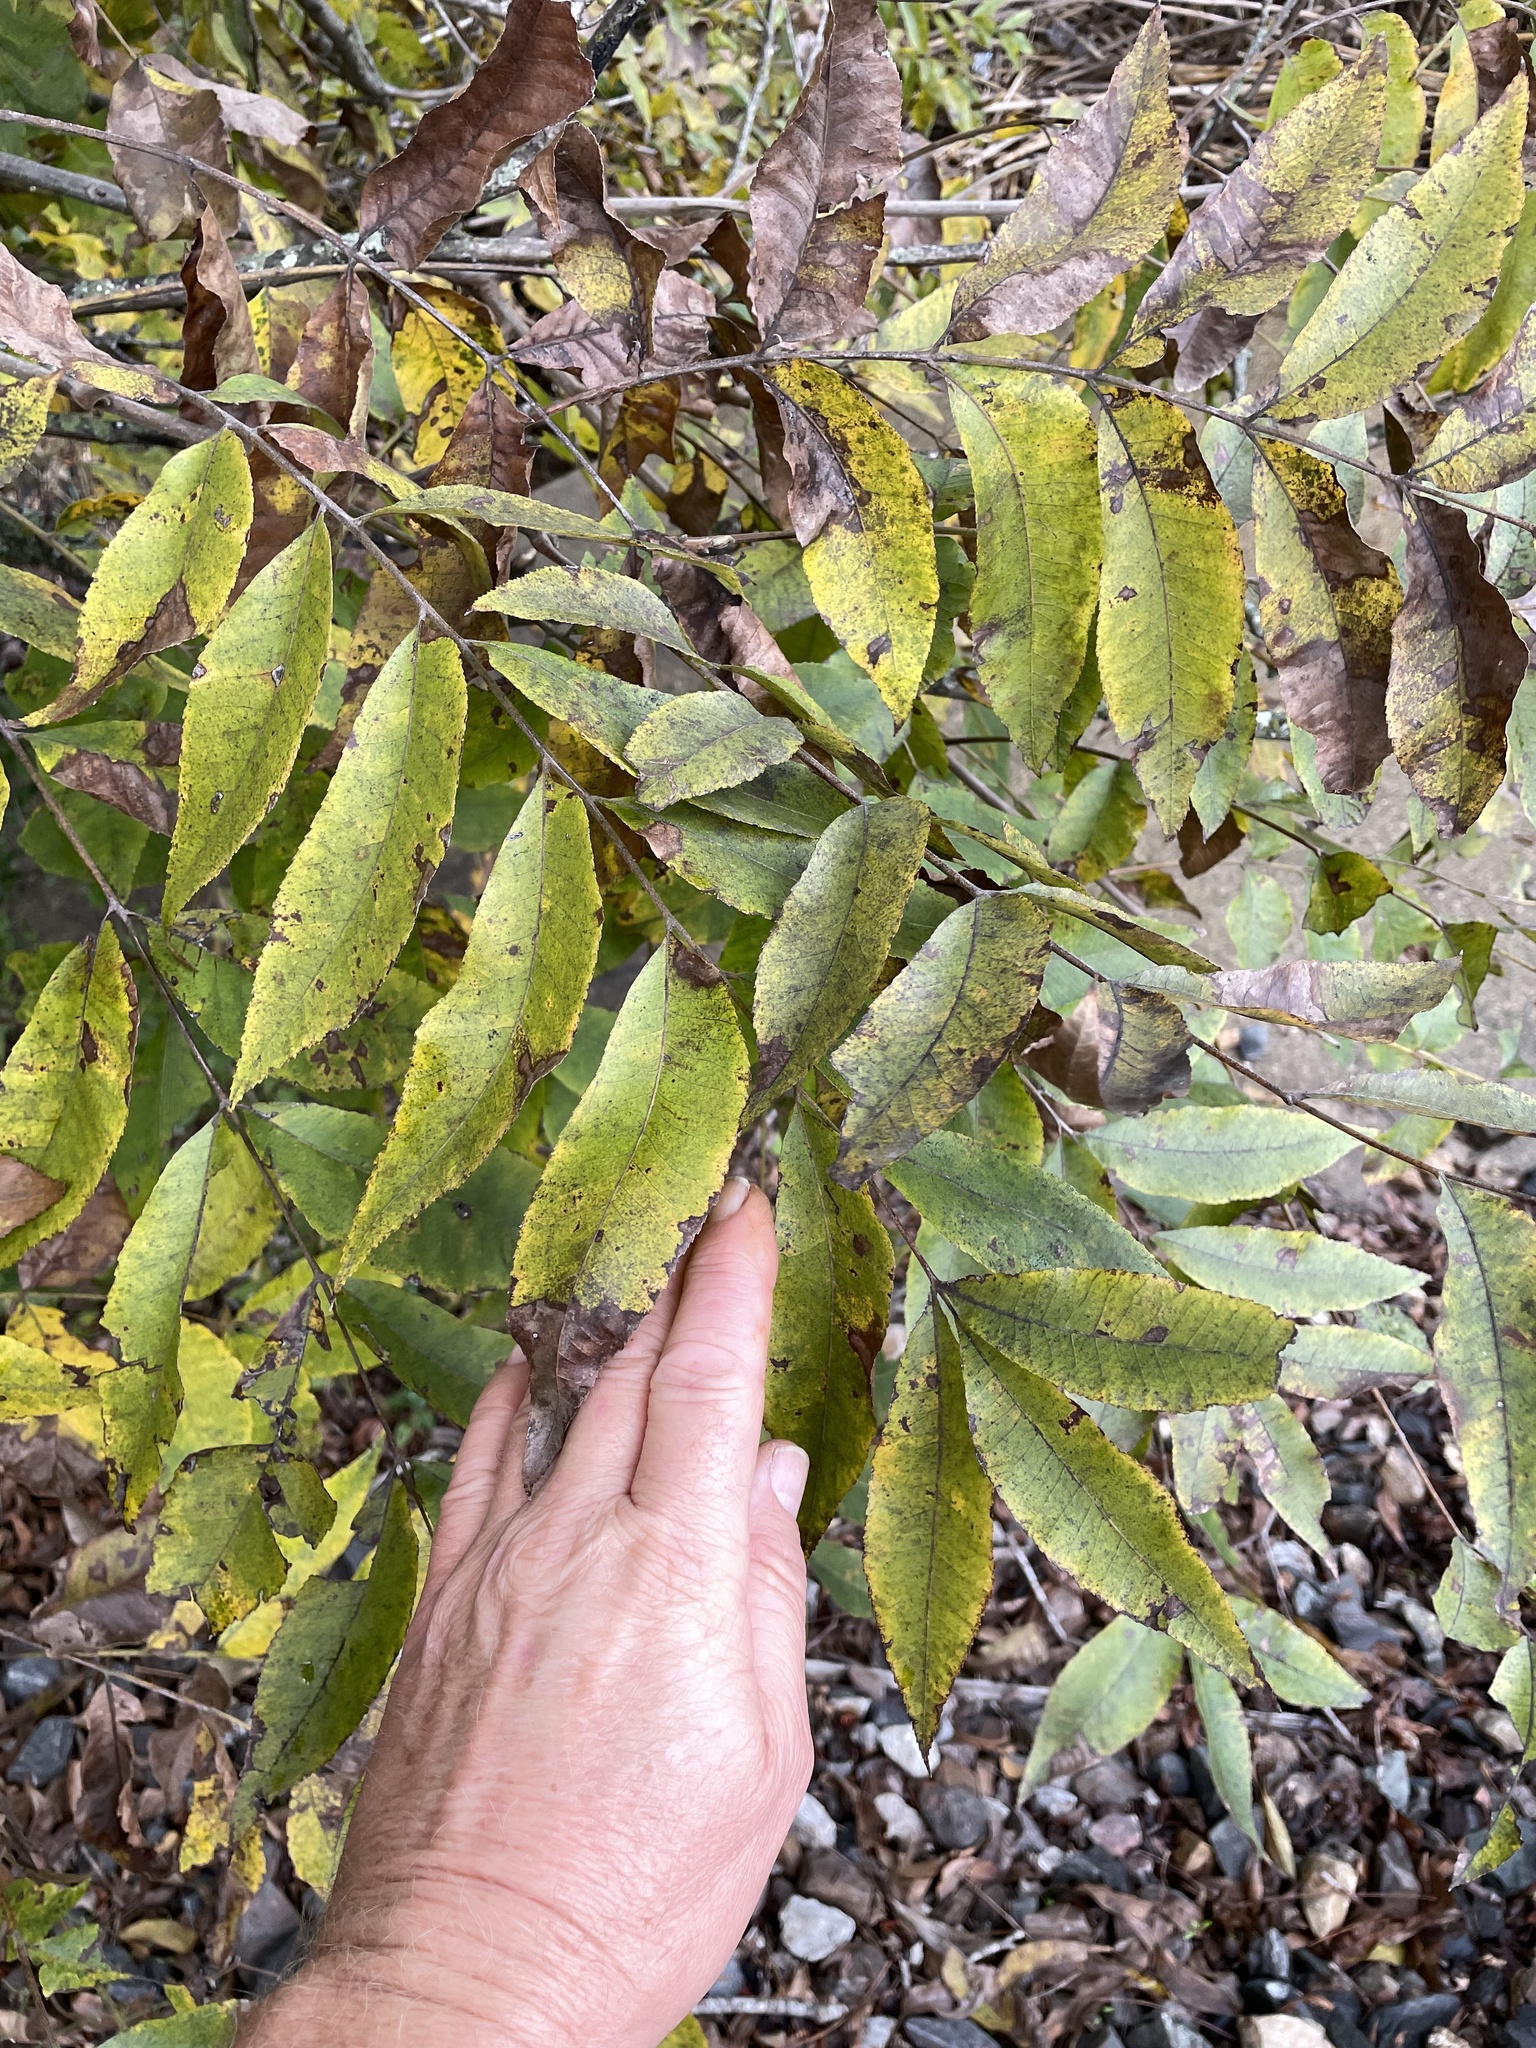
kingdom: Plantae
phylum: Tracheophyta
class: Magnoliopsida
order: Fagales
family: Juglandaceae
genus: Carya
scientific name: Carya illinoinensis
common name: Pecan
